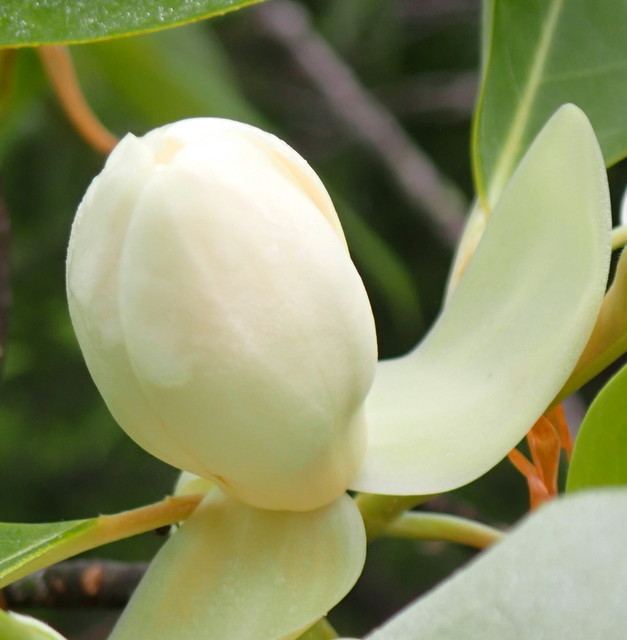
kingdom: Plantae
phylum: Tracheophyta
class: Magnoliopsida
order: Magnoliales
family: Magnoliaceae
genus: Magnolia
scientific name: Magnolia virginiana
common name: Swamp bay
